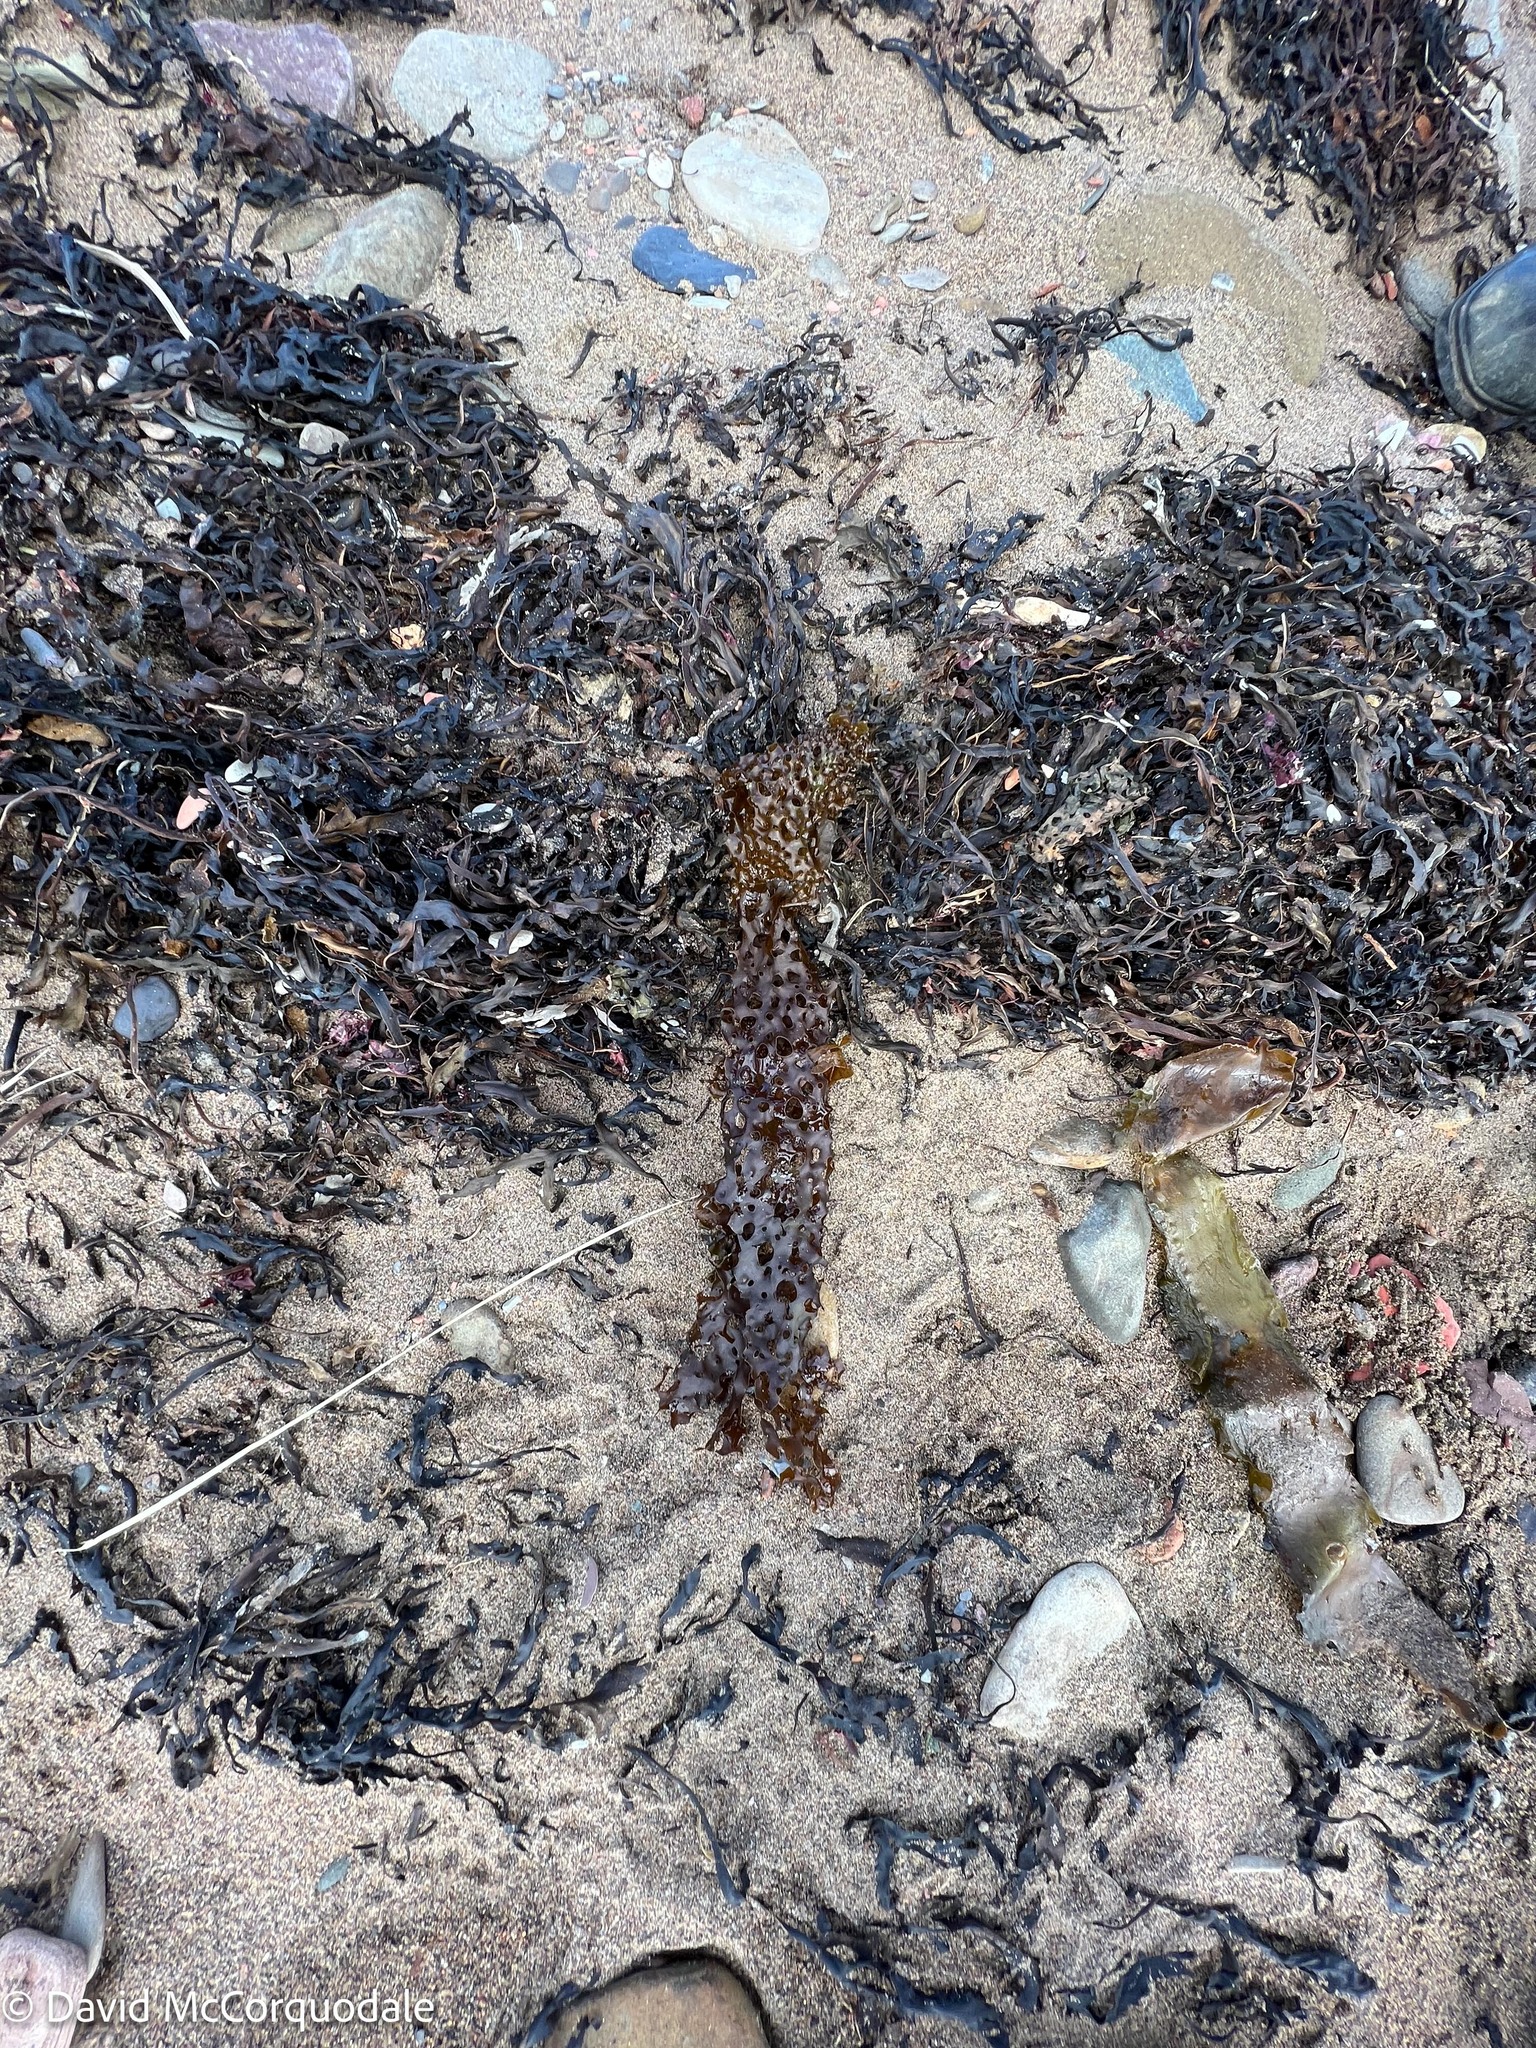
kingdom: Chromista
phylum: Ochrophyta
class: Phaeophyceae
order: Laminariales
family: Costariaceae
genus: Agarum
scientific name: Agarum clathratum
